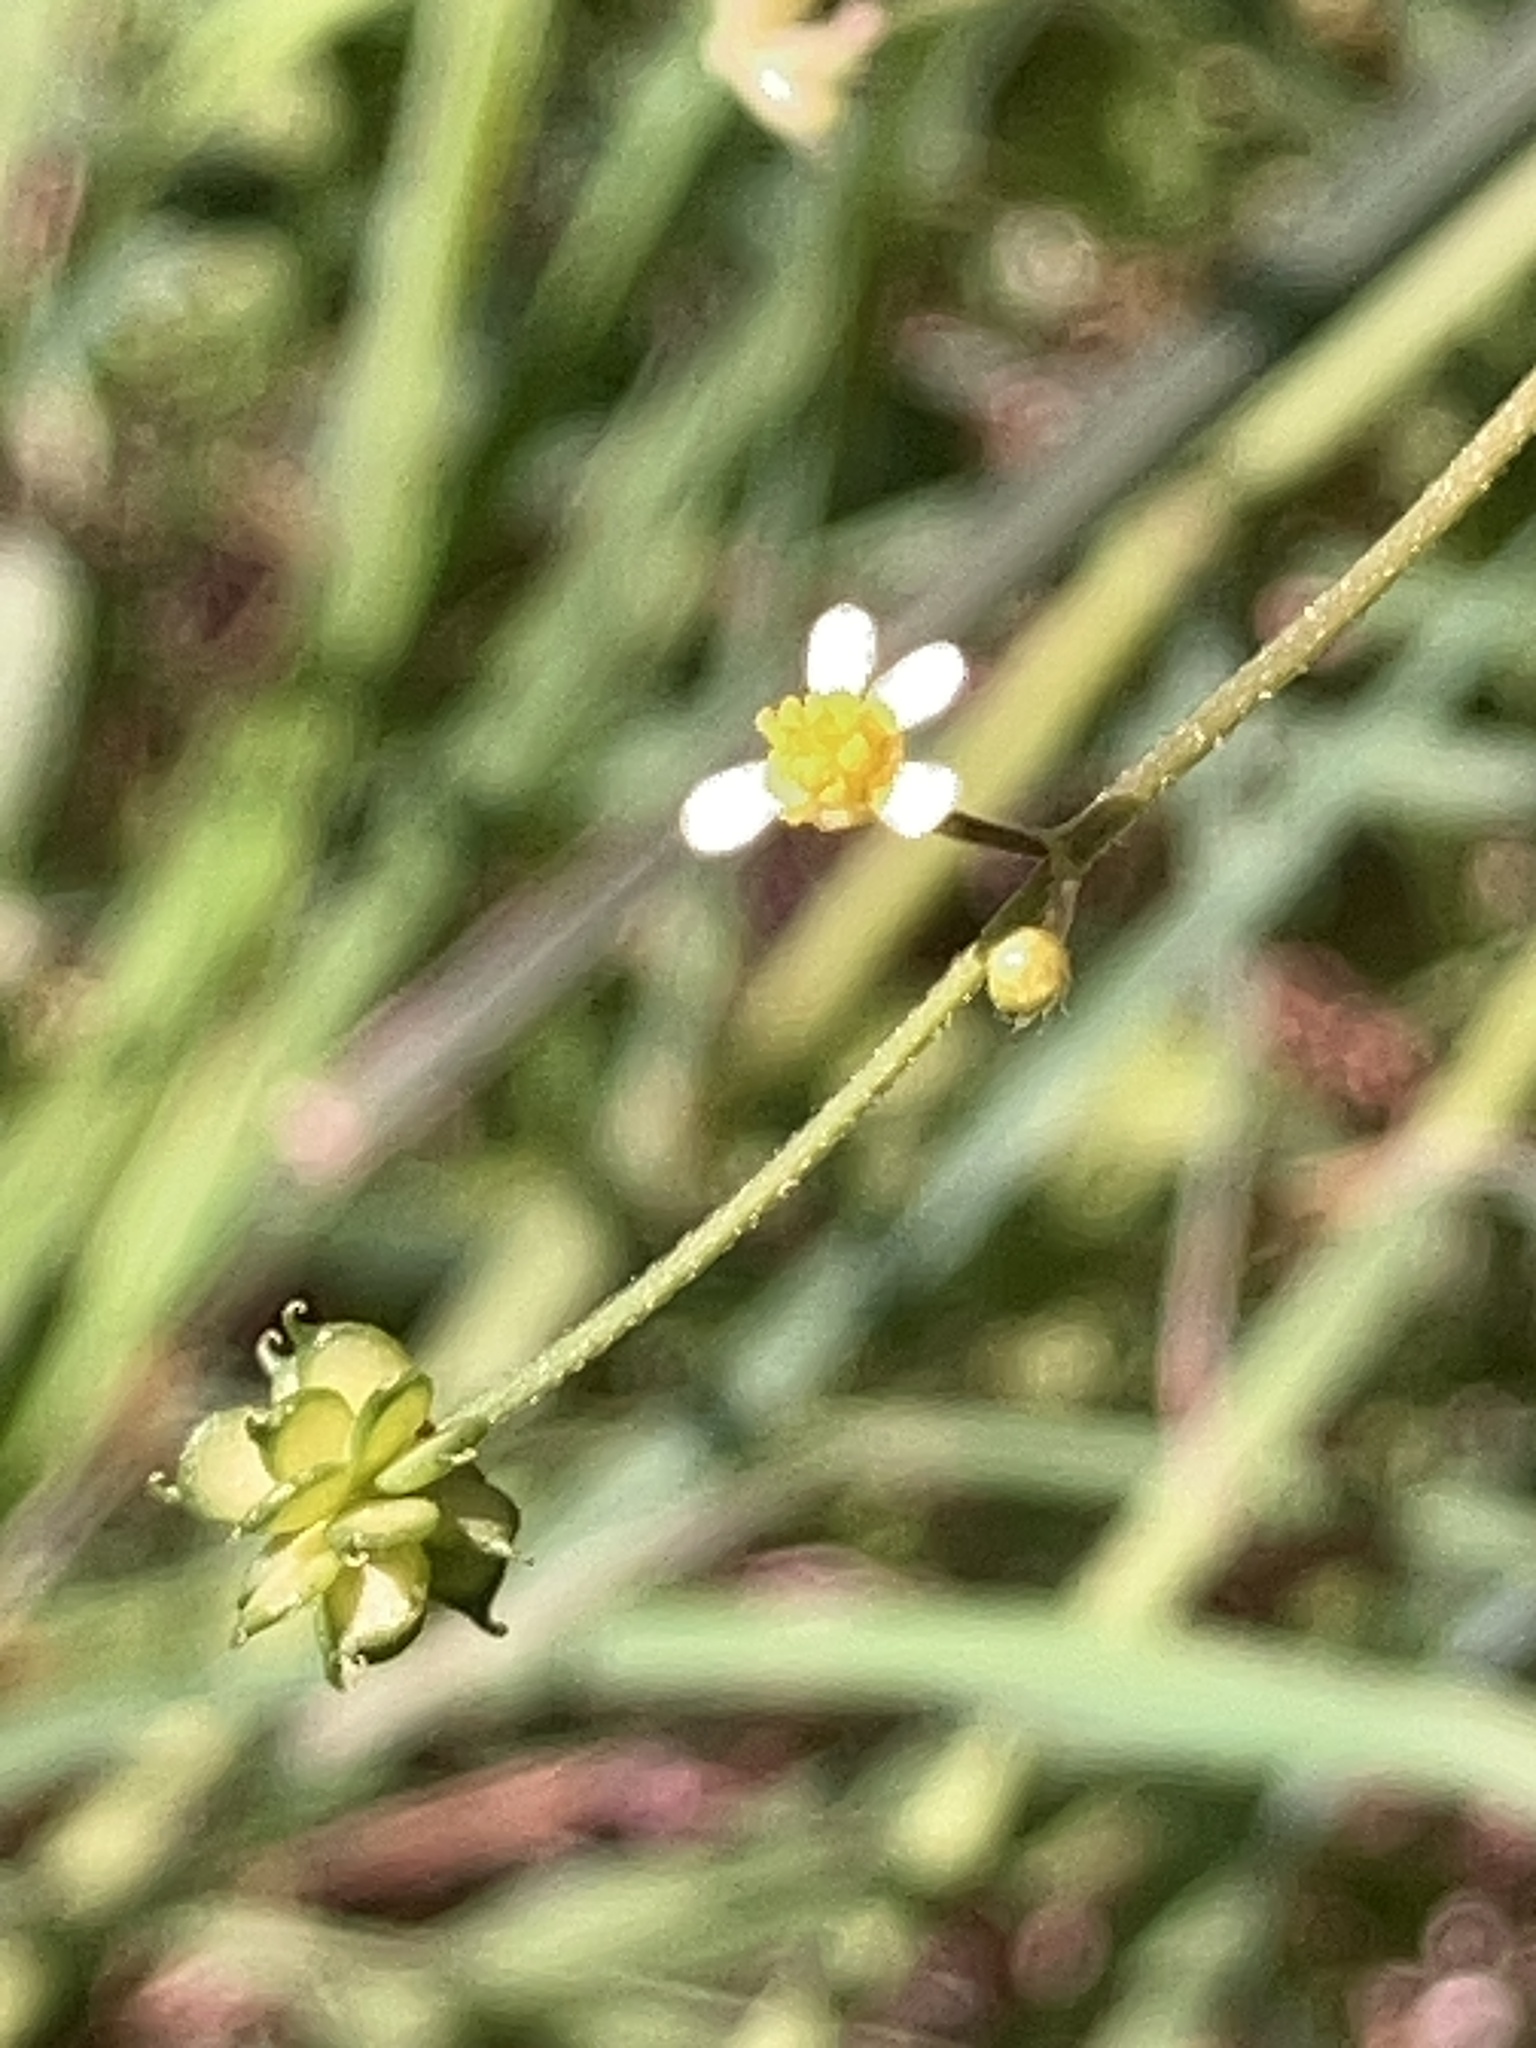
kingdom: Plantae
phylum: Tracheophyta
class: Magnoliopsida
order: Ranunculales
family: Ranunculaceae
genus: Ranunculus
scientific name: Ranunculus uncinatus
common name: Little buttercup
